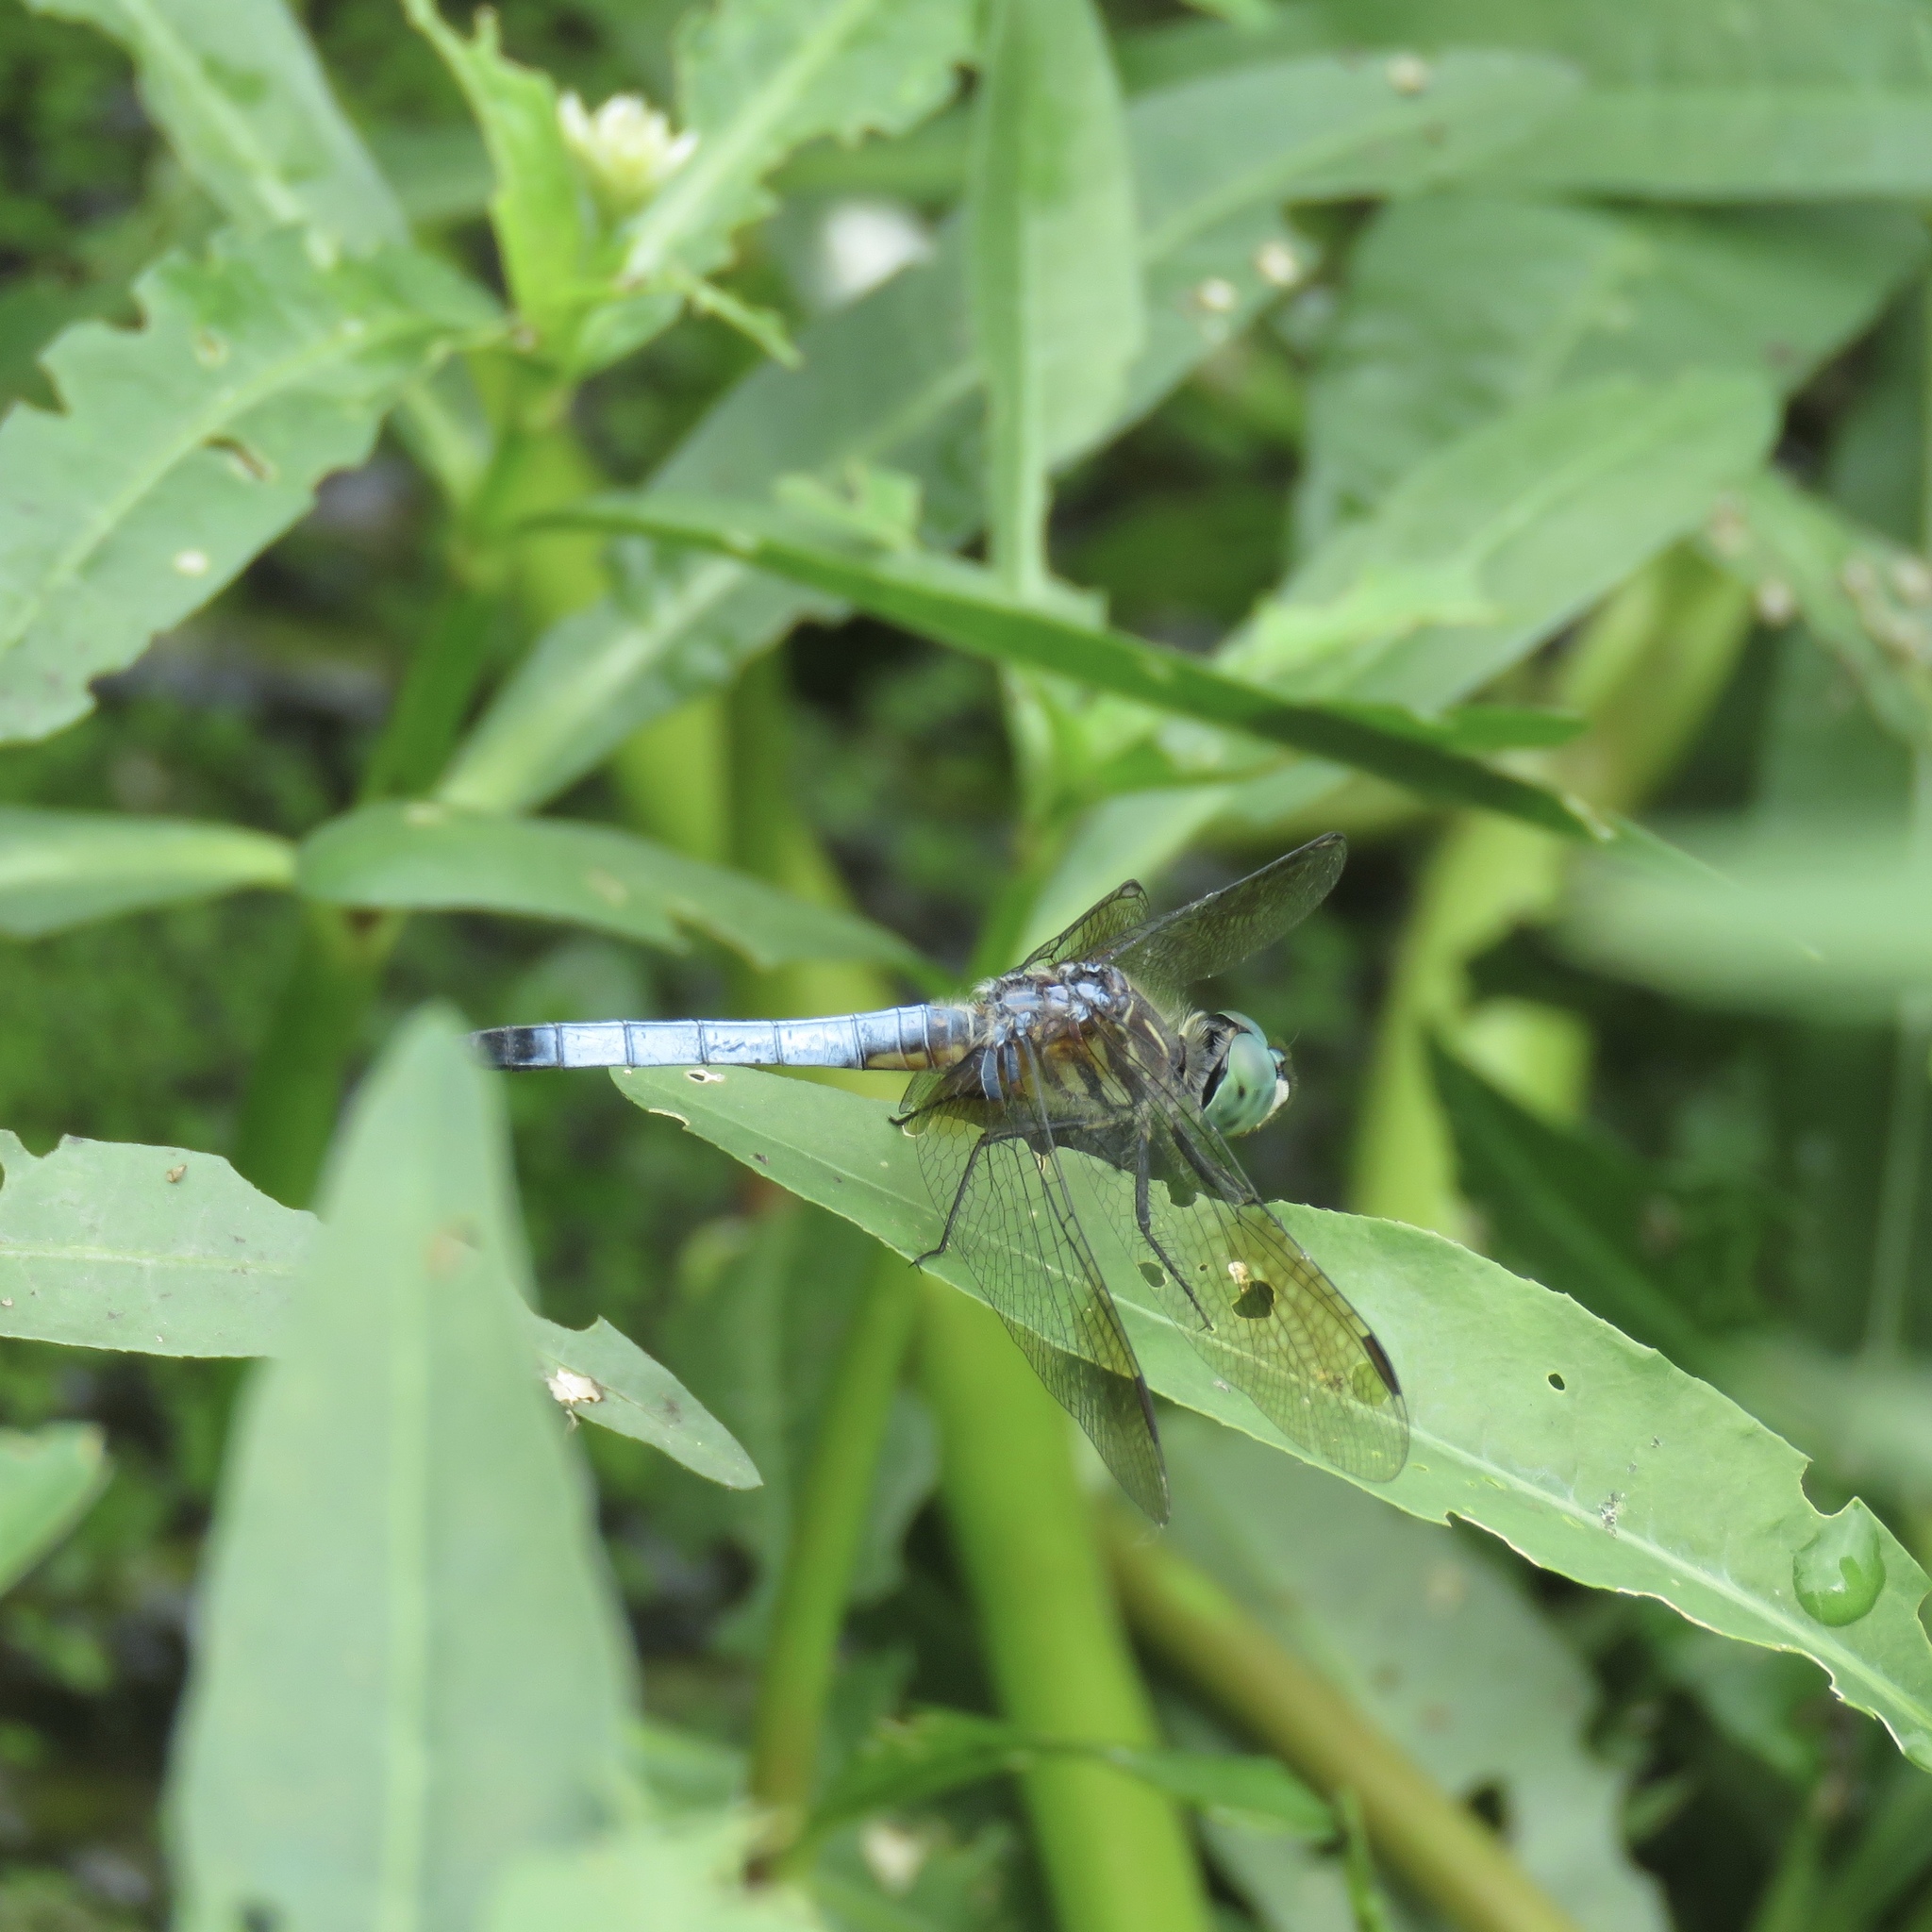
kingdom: Animalia
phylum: Arthropoda
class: Insecta
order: Odonata
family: Libellulidae
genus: Pachydiplax
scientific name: Pachydiplax longipennis
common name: Blue dasher
